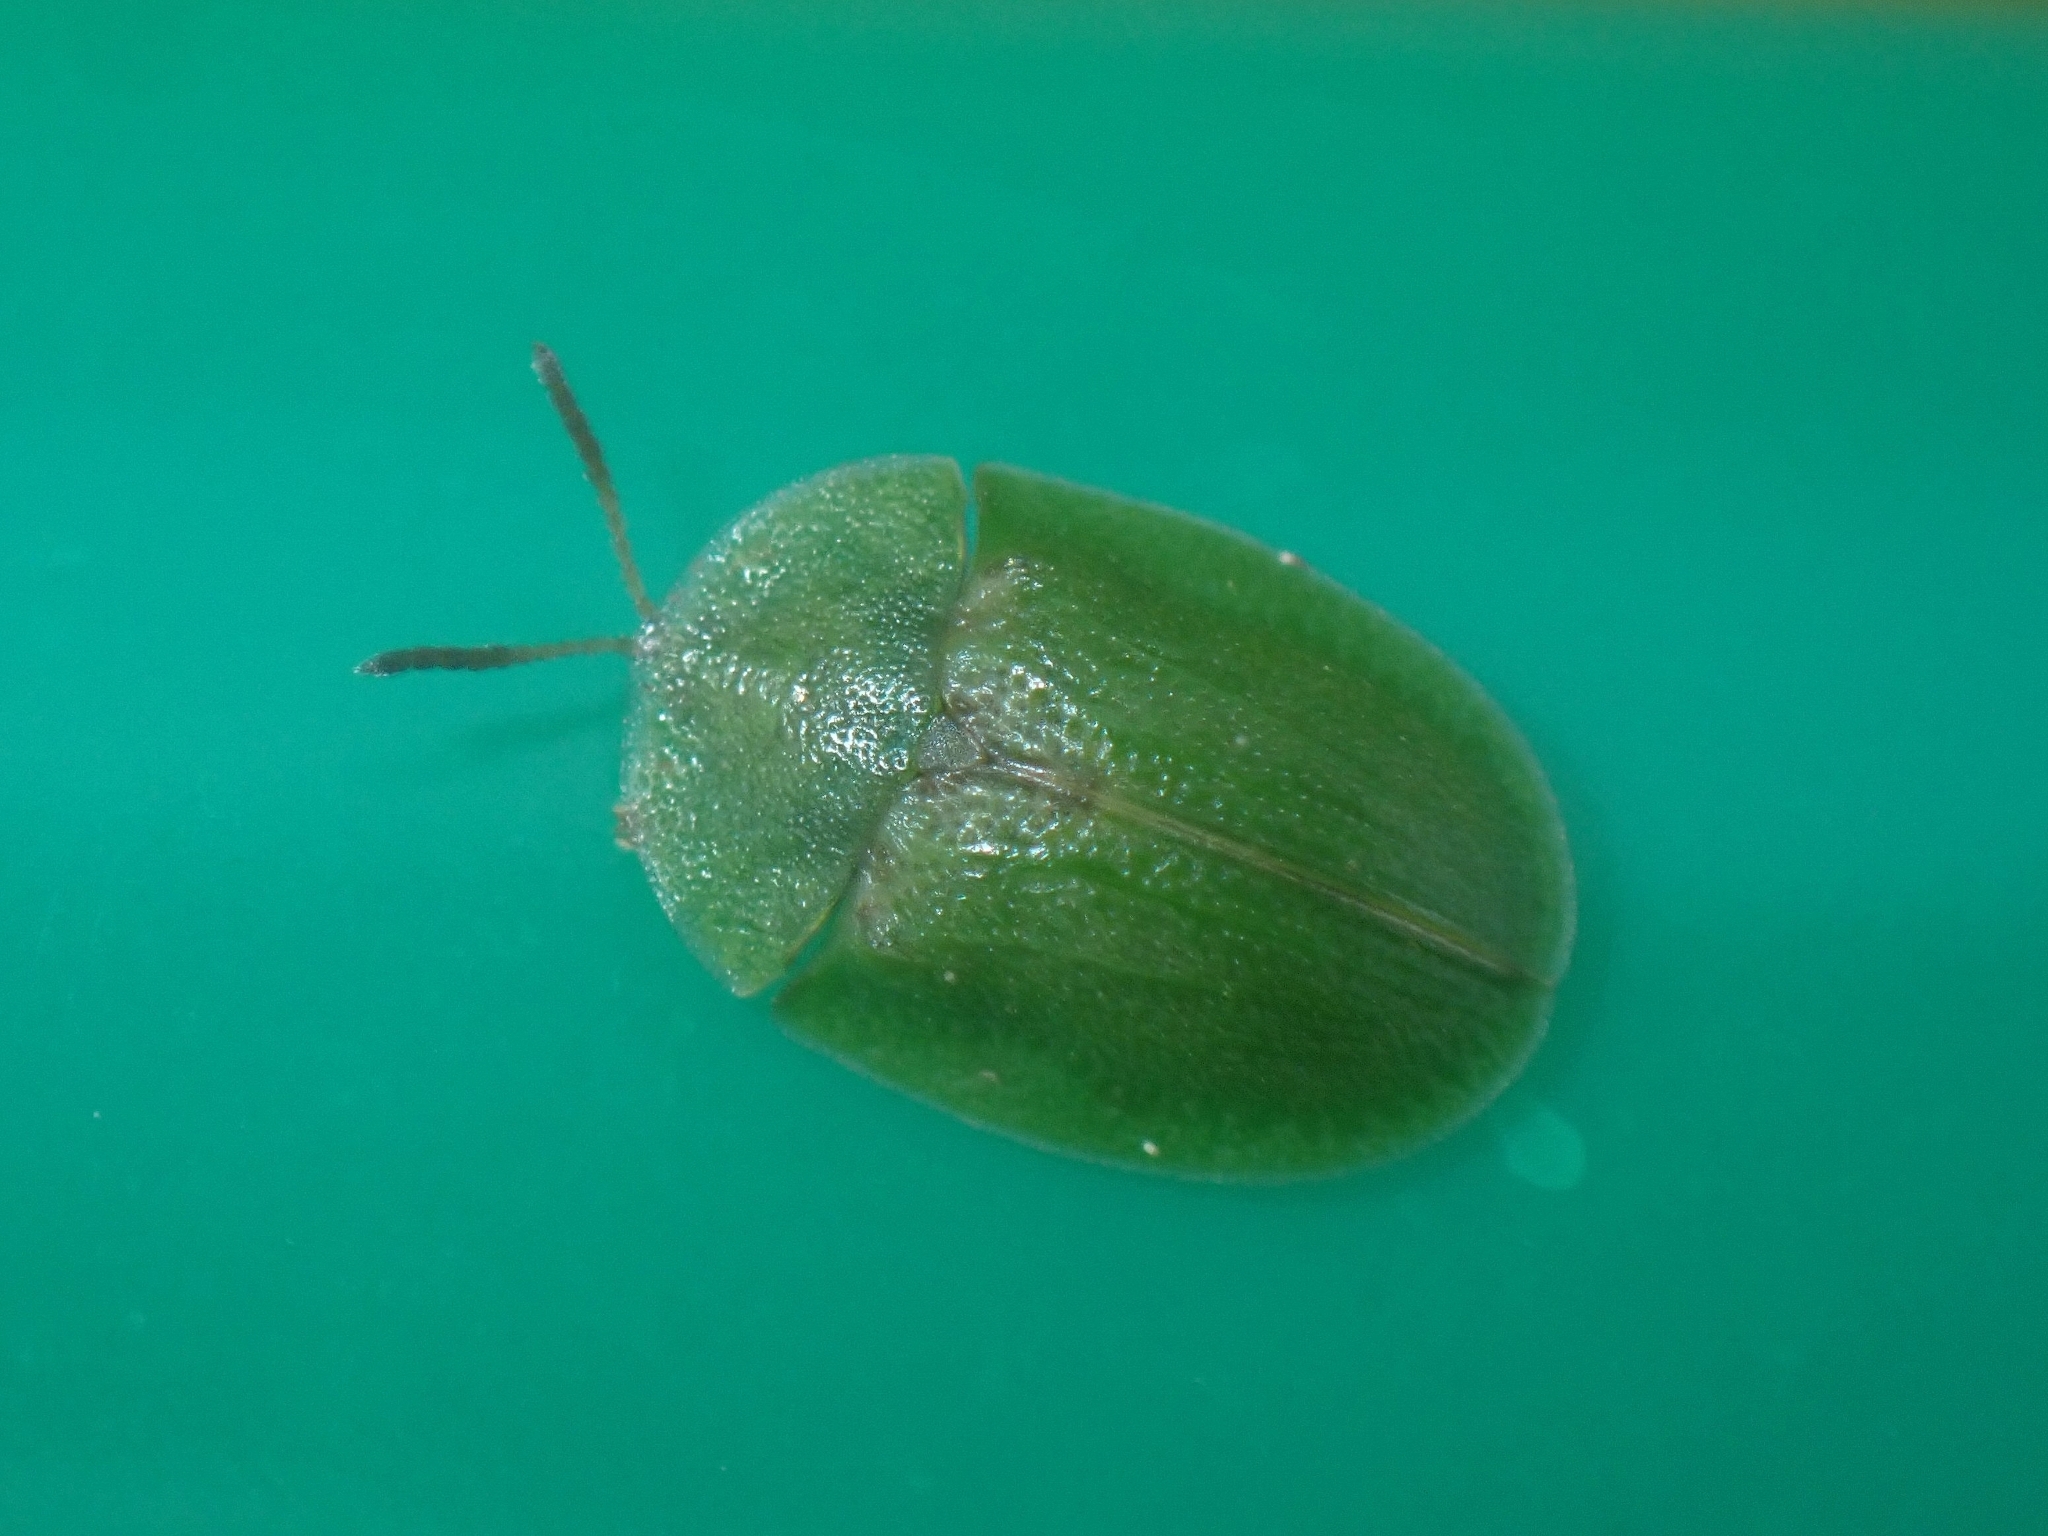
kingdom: Animalia
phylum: Arthropoda
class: Insecta
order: Coleoptera
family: Chrysomelidae
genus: Cassida
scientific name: Cassida rubiginosa
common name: Thistle tortoise beetle
